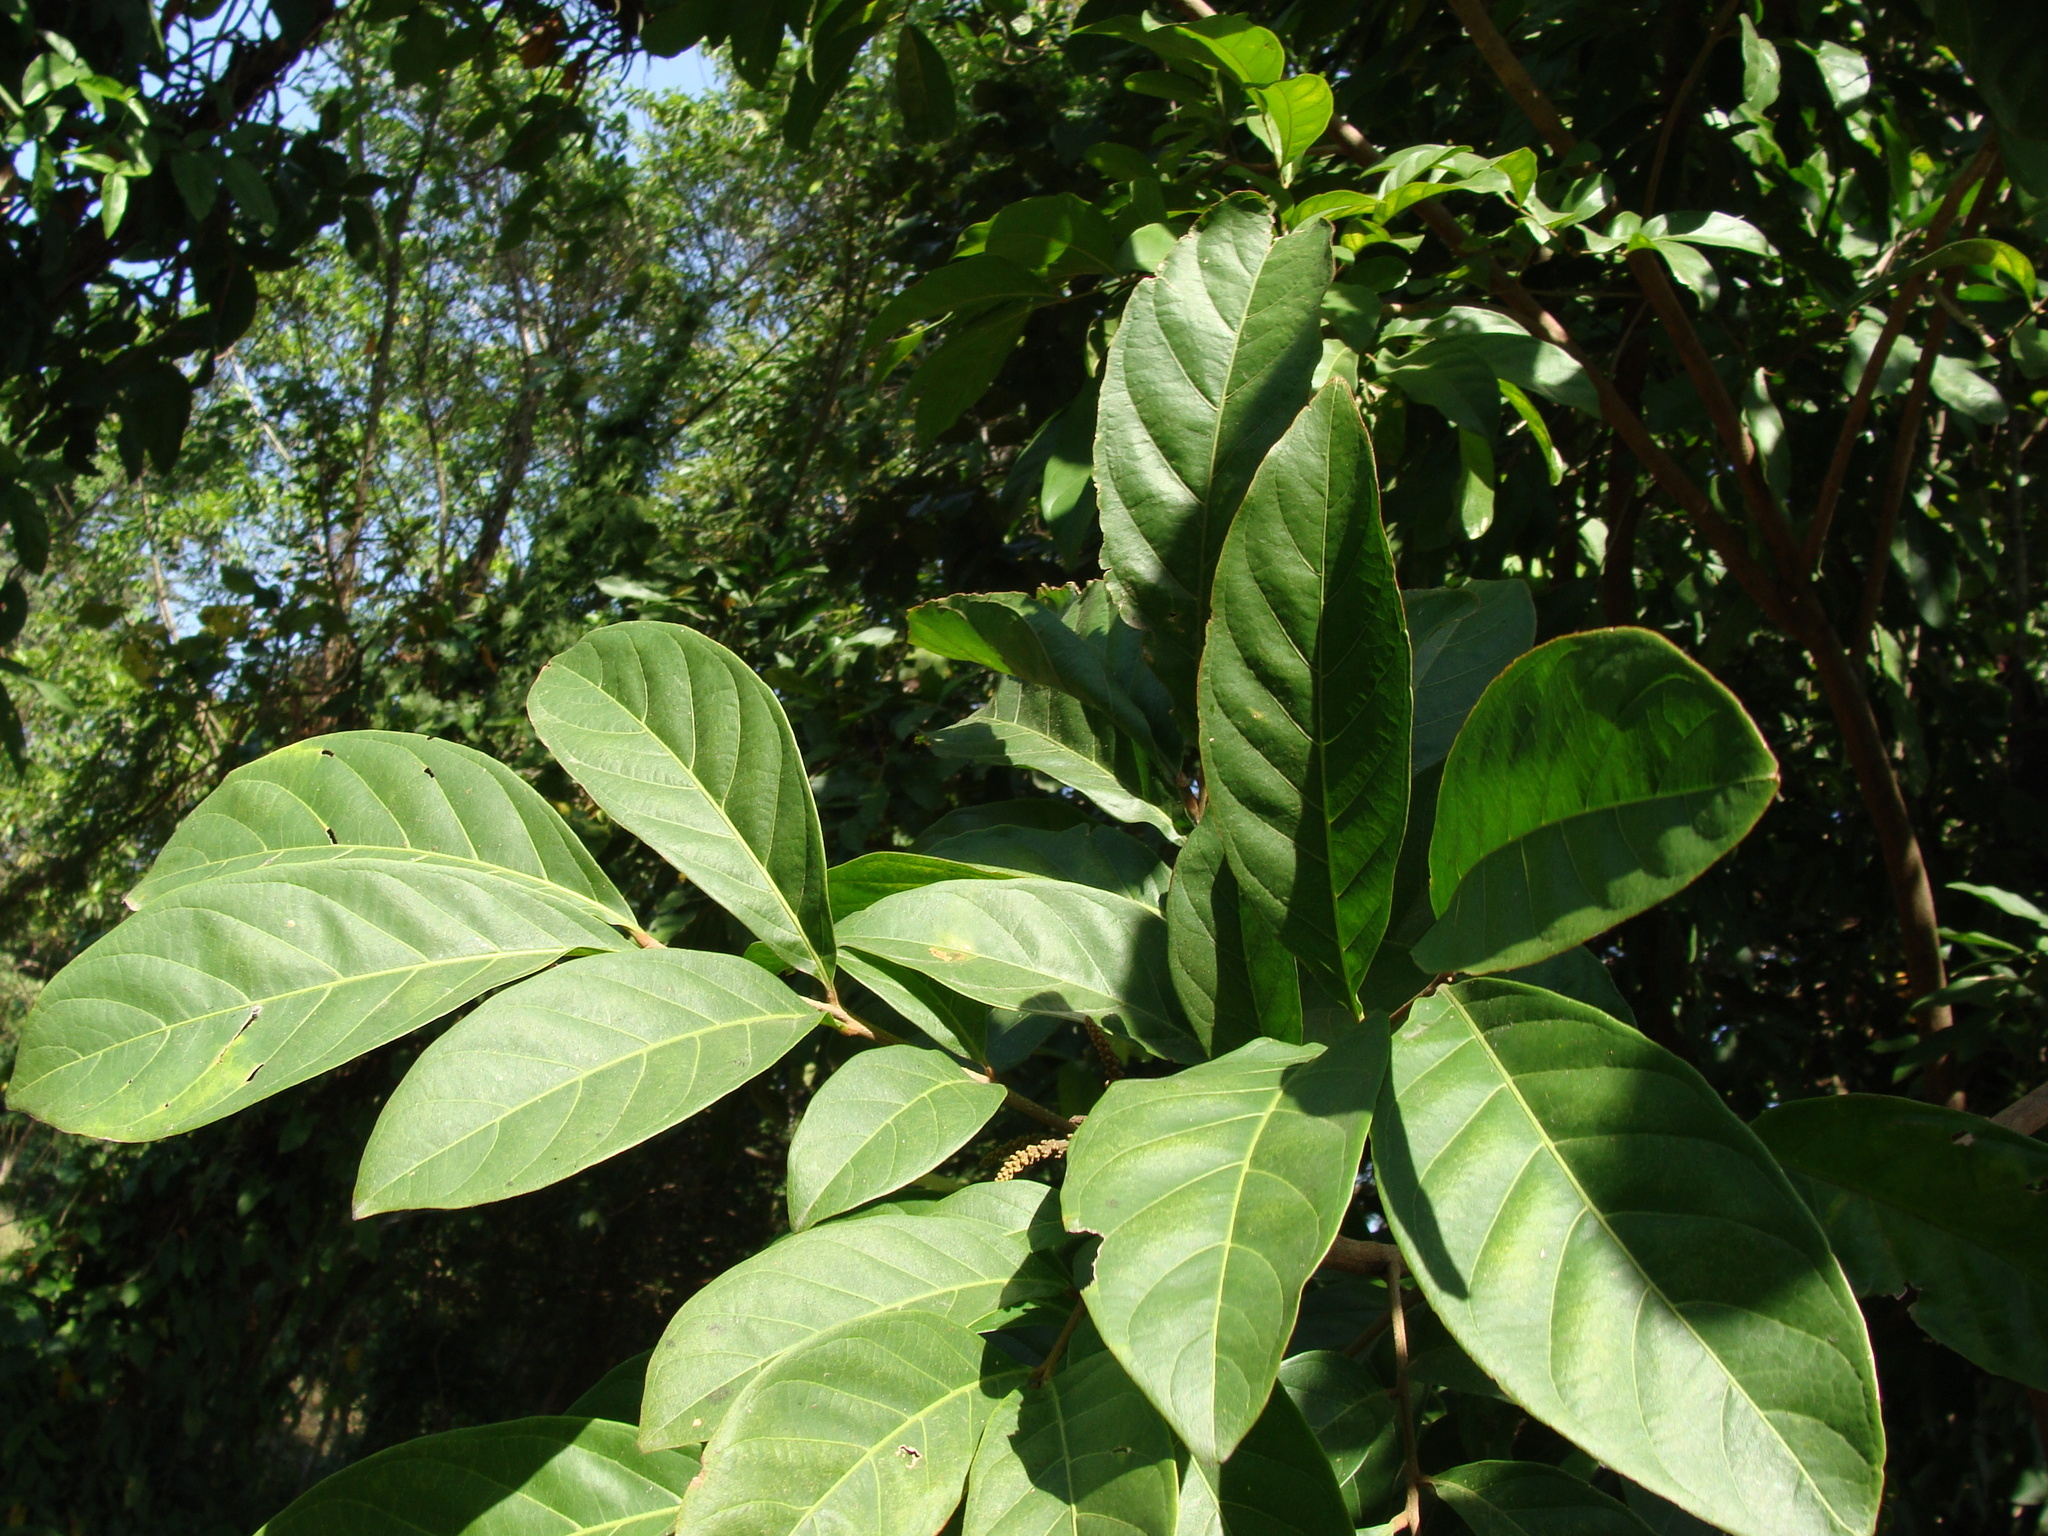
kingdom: Plantae
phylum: Tracheophyta
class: Magnoliopsida
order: Sapindales
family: Sapindaceae
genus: Matayba
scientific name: Matayba clavelligera
